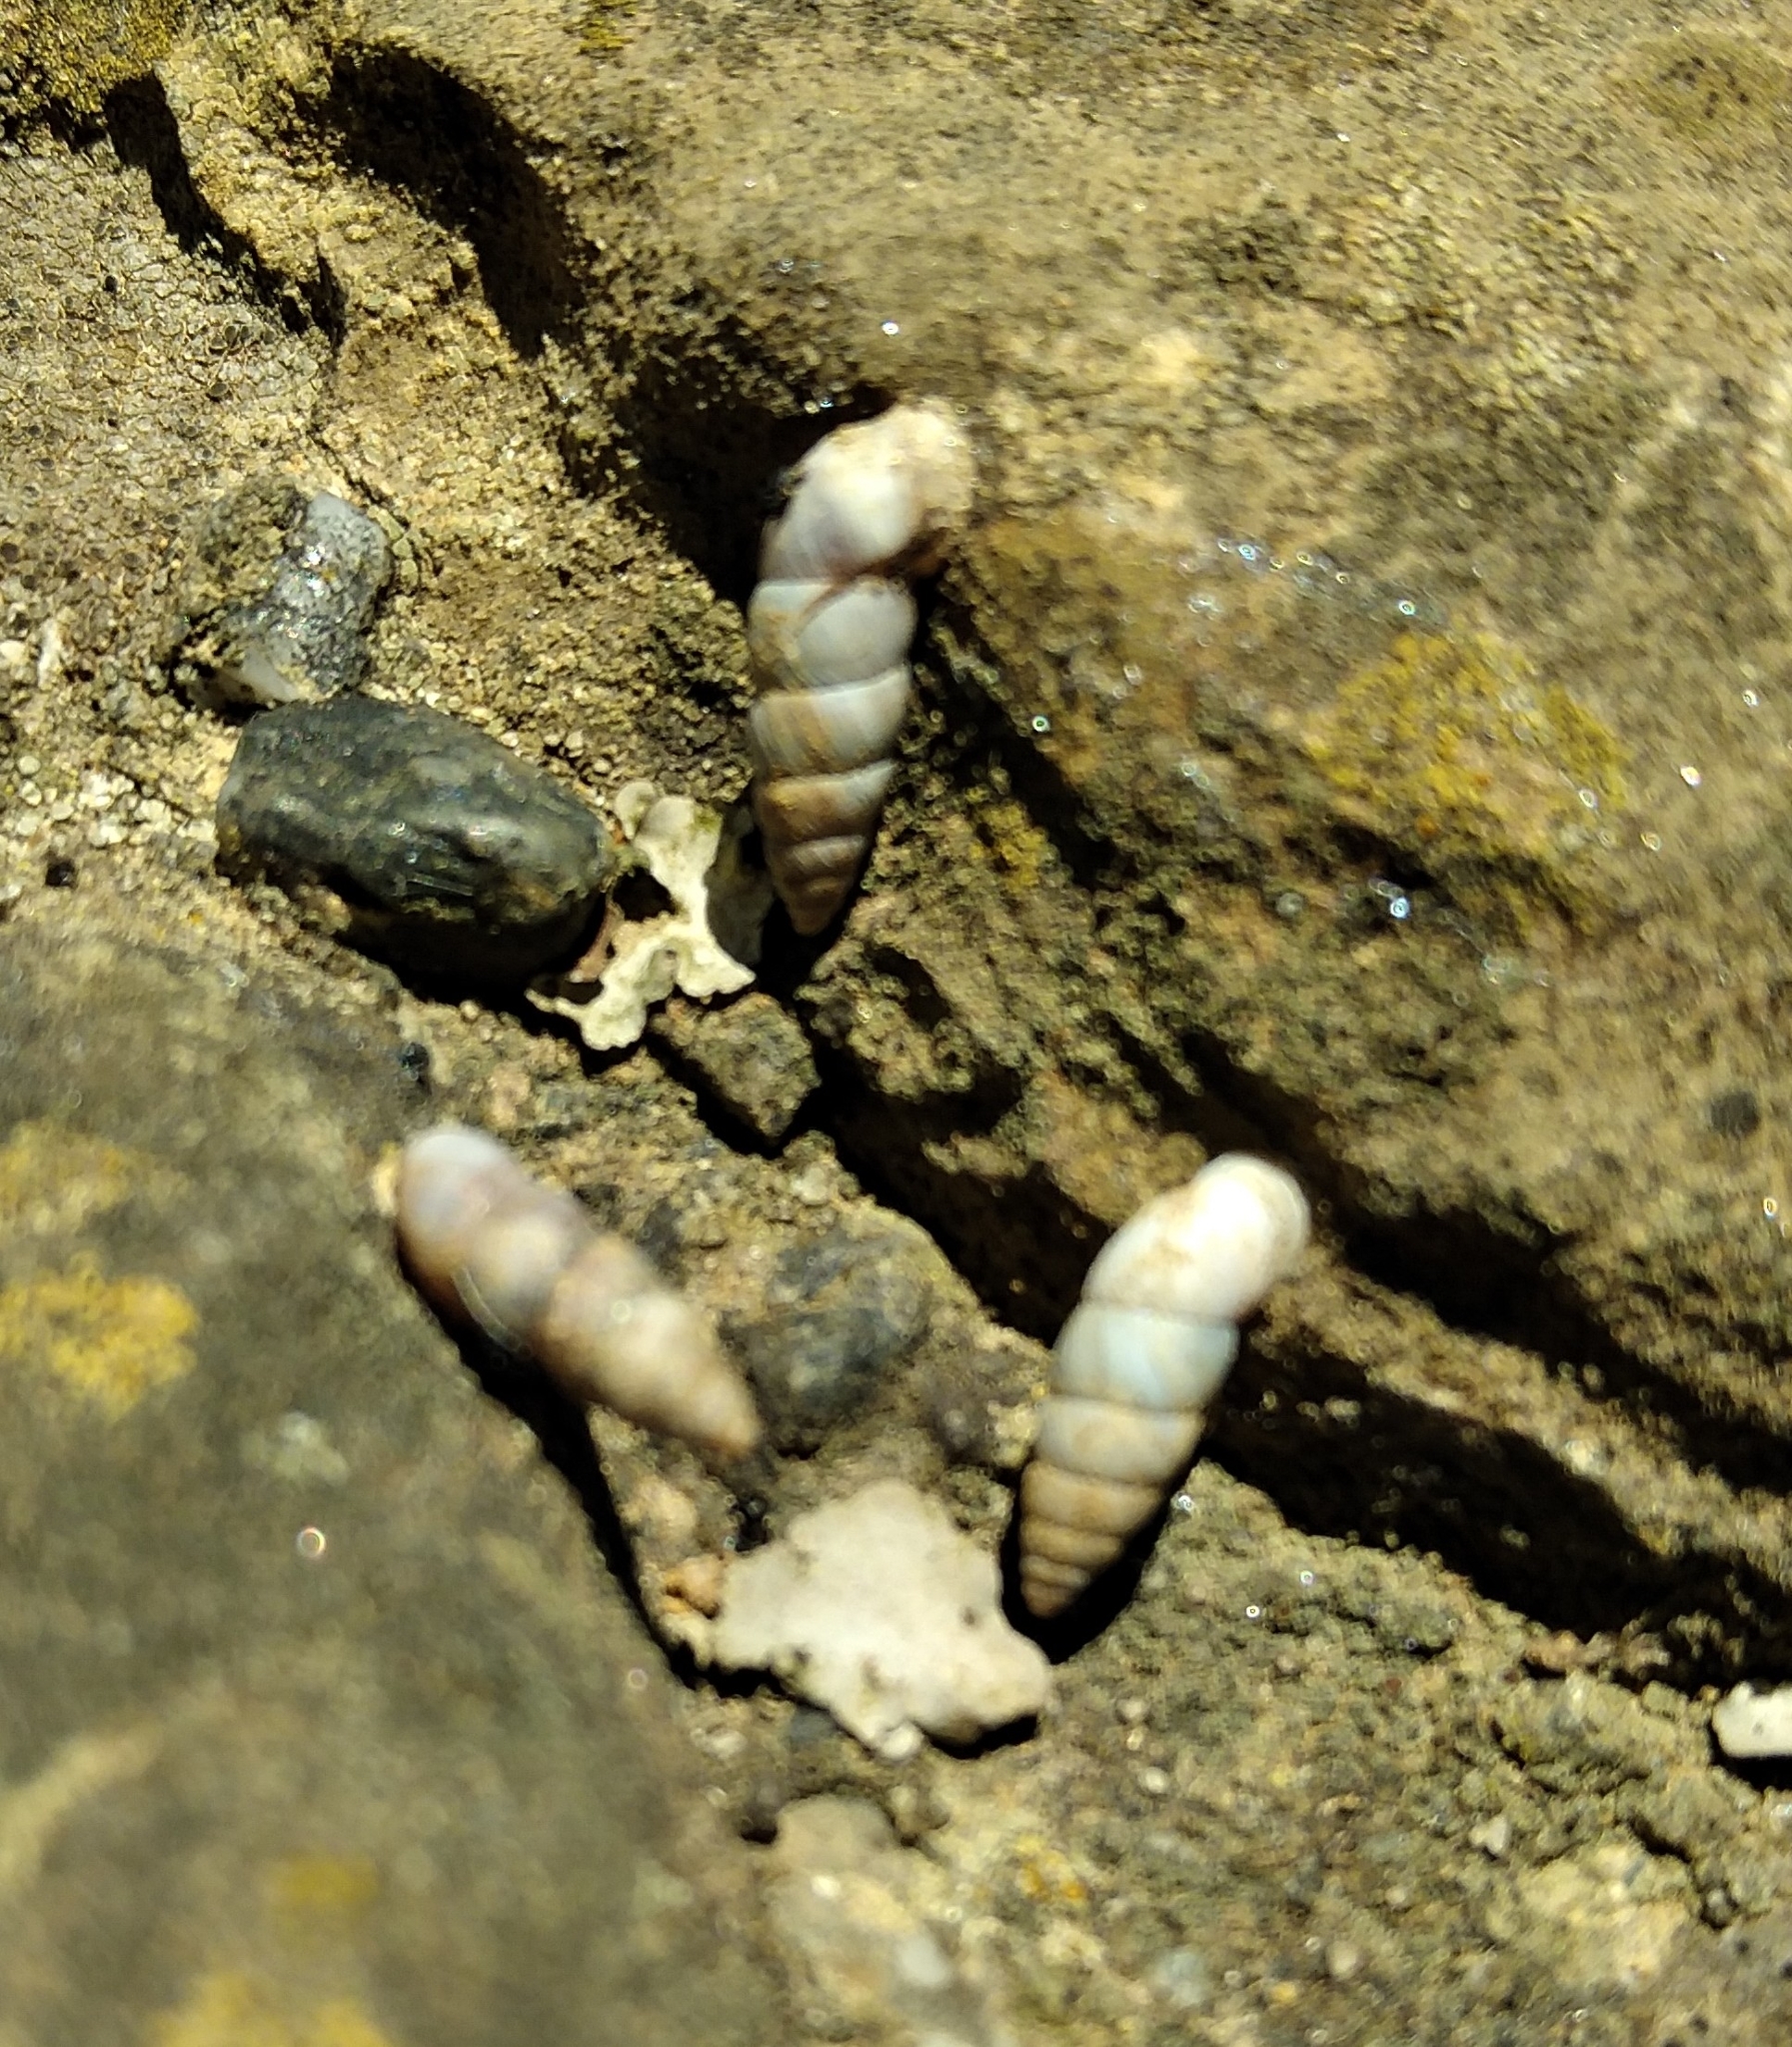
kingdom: Animalia
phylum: Mollusca
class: Gastropoda
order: Stylommatophora
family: Chondrinidae
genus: Solatopupa
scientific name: Solatopupa pallida
